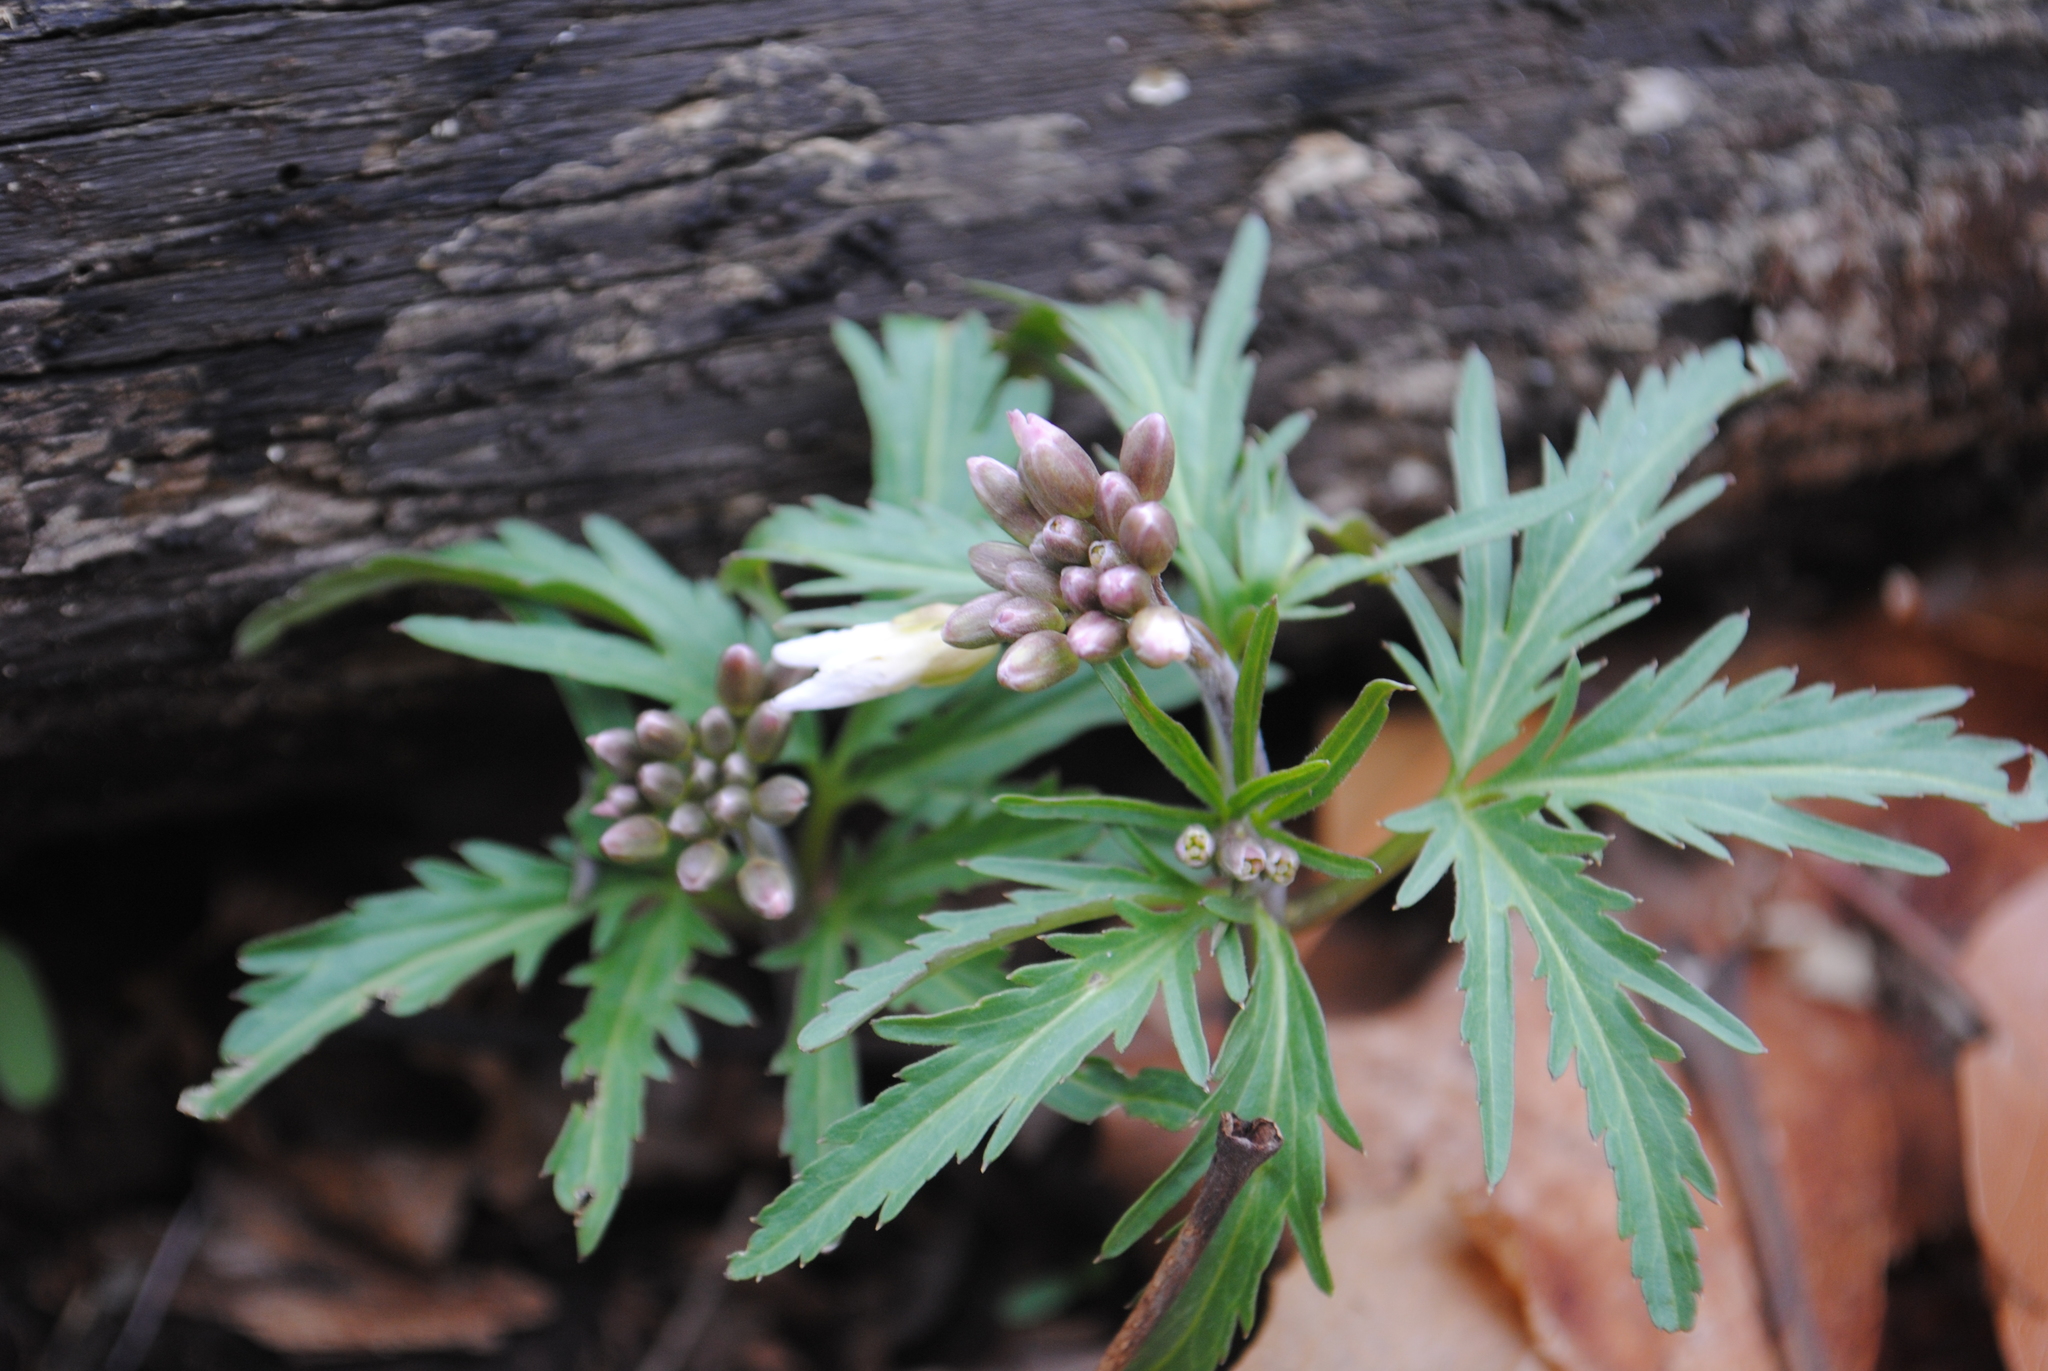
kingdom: Plantae
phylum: Tracheophyta
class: Magnoliopsida
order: Brassicales
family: Brassicaceae
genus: Cardamine
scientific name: Cardamine concatenata
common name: Cut-leaf toothcup
